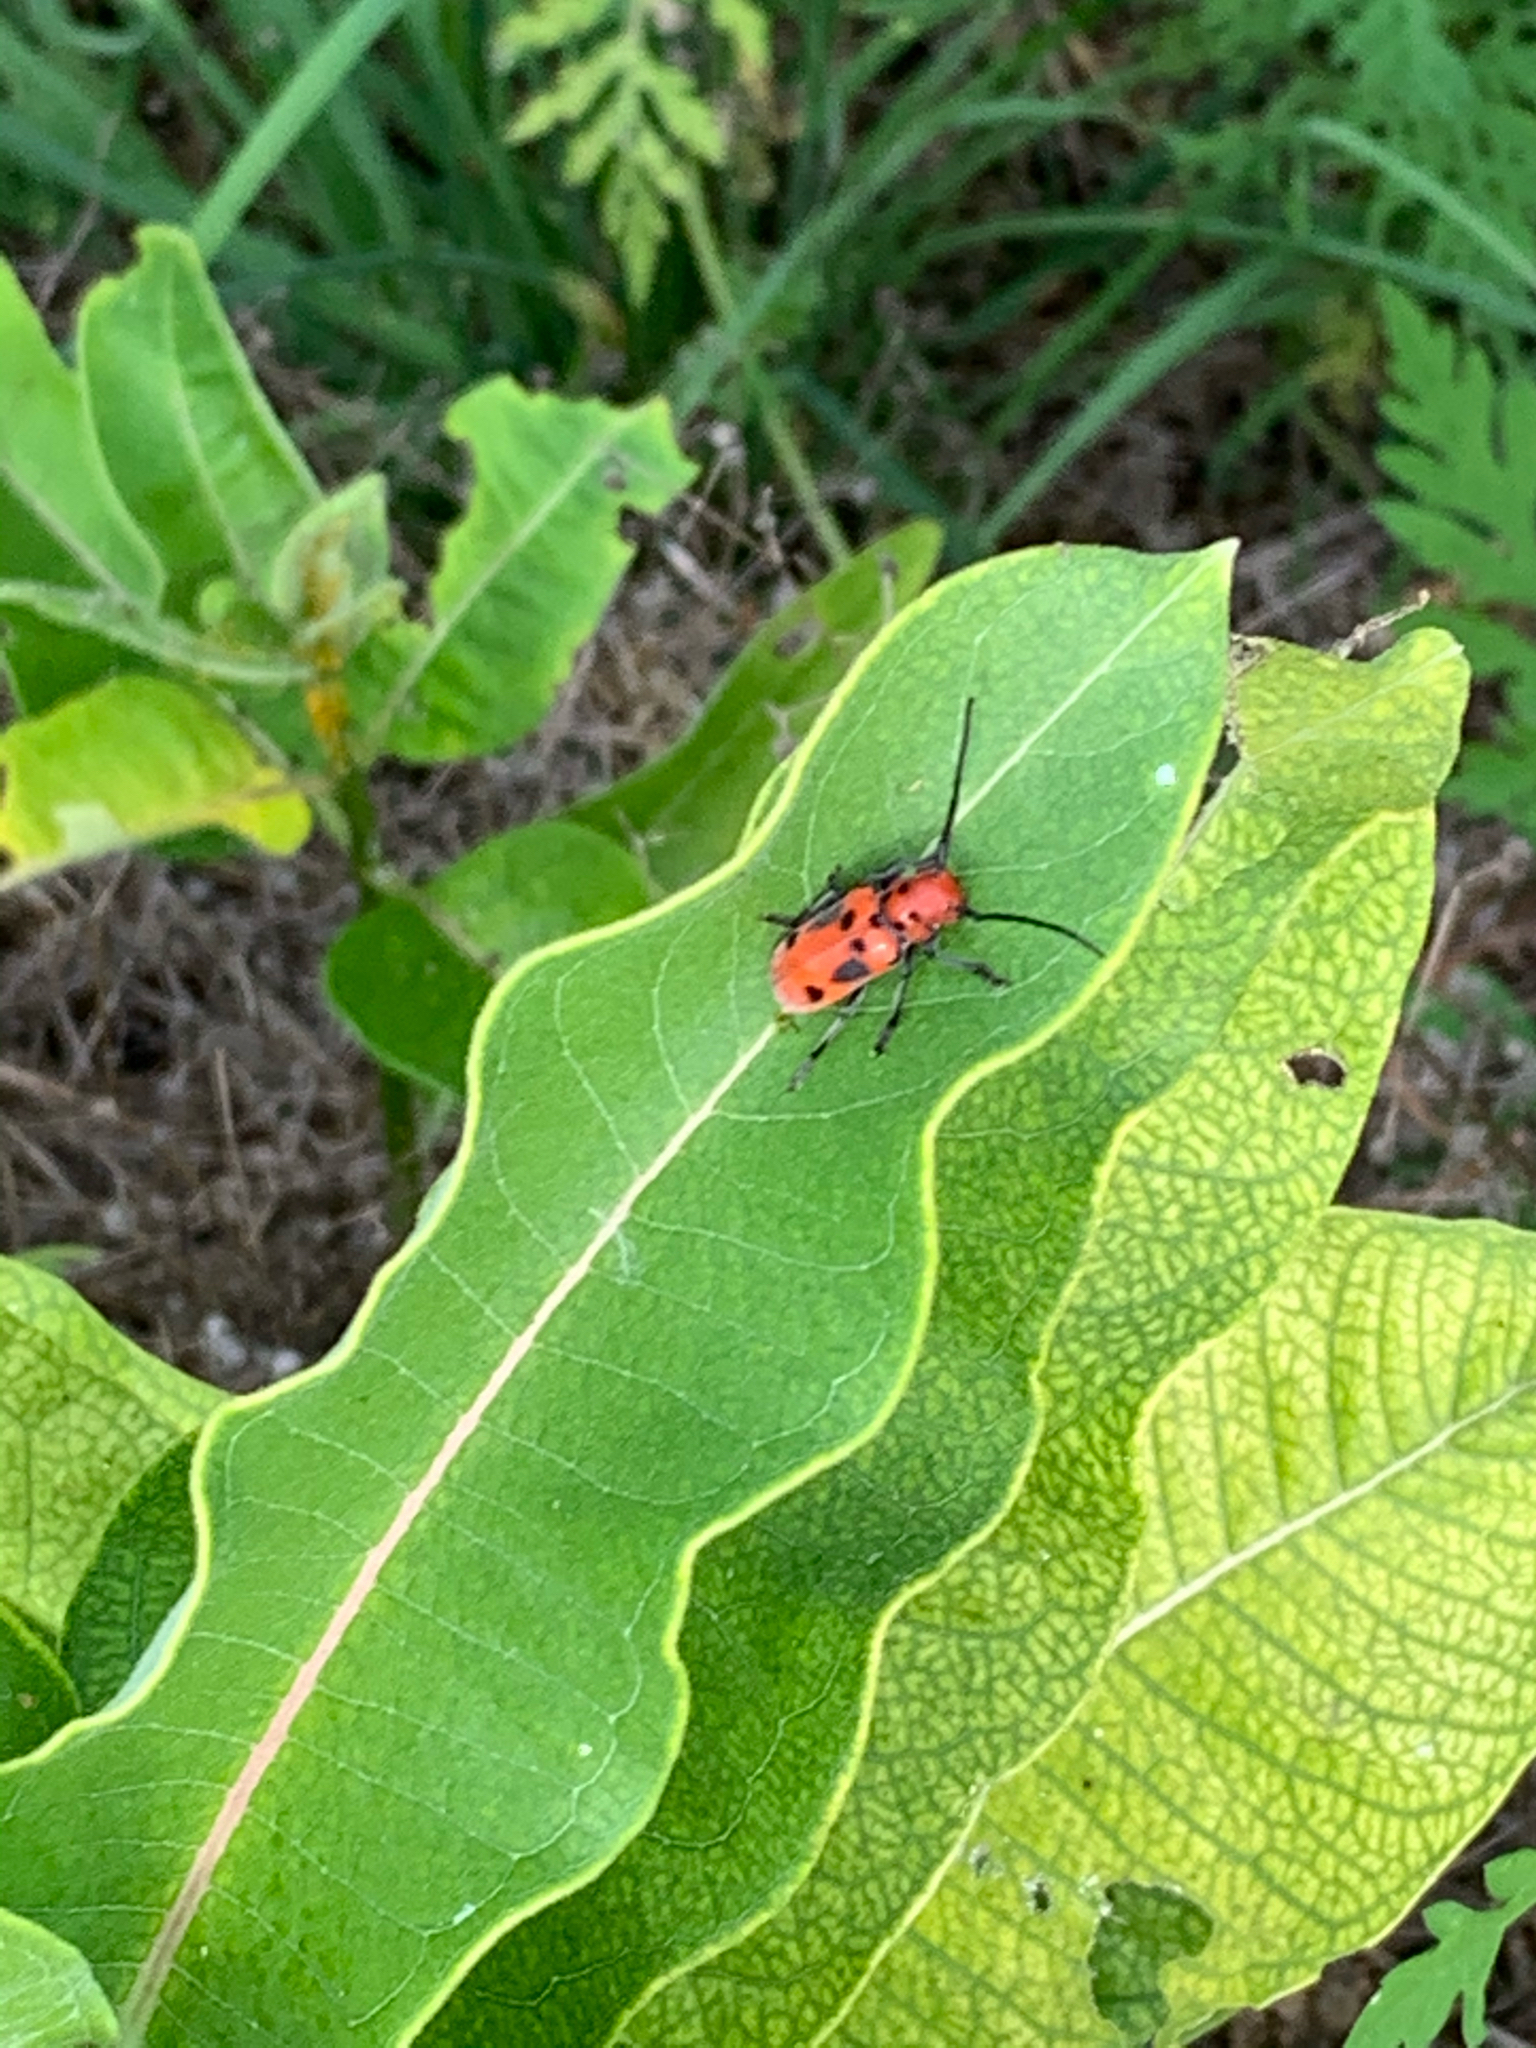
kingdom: Animalia
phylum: Arthropoda
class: Insecta
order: Coleoptera
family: Cerambycidae
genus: Tetraopes
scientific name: Tetraopes tetrophthalmus
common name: Red milkweed beetle
